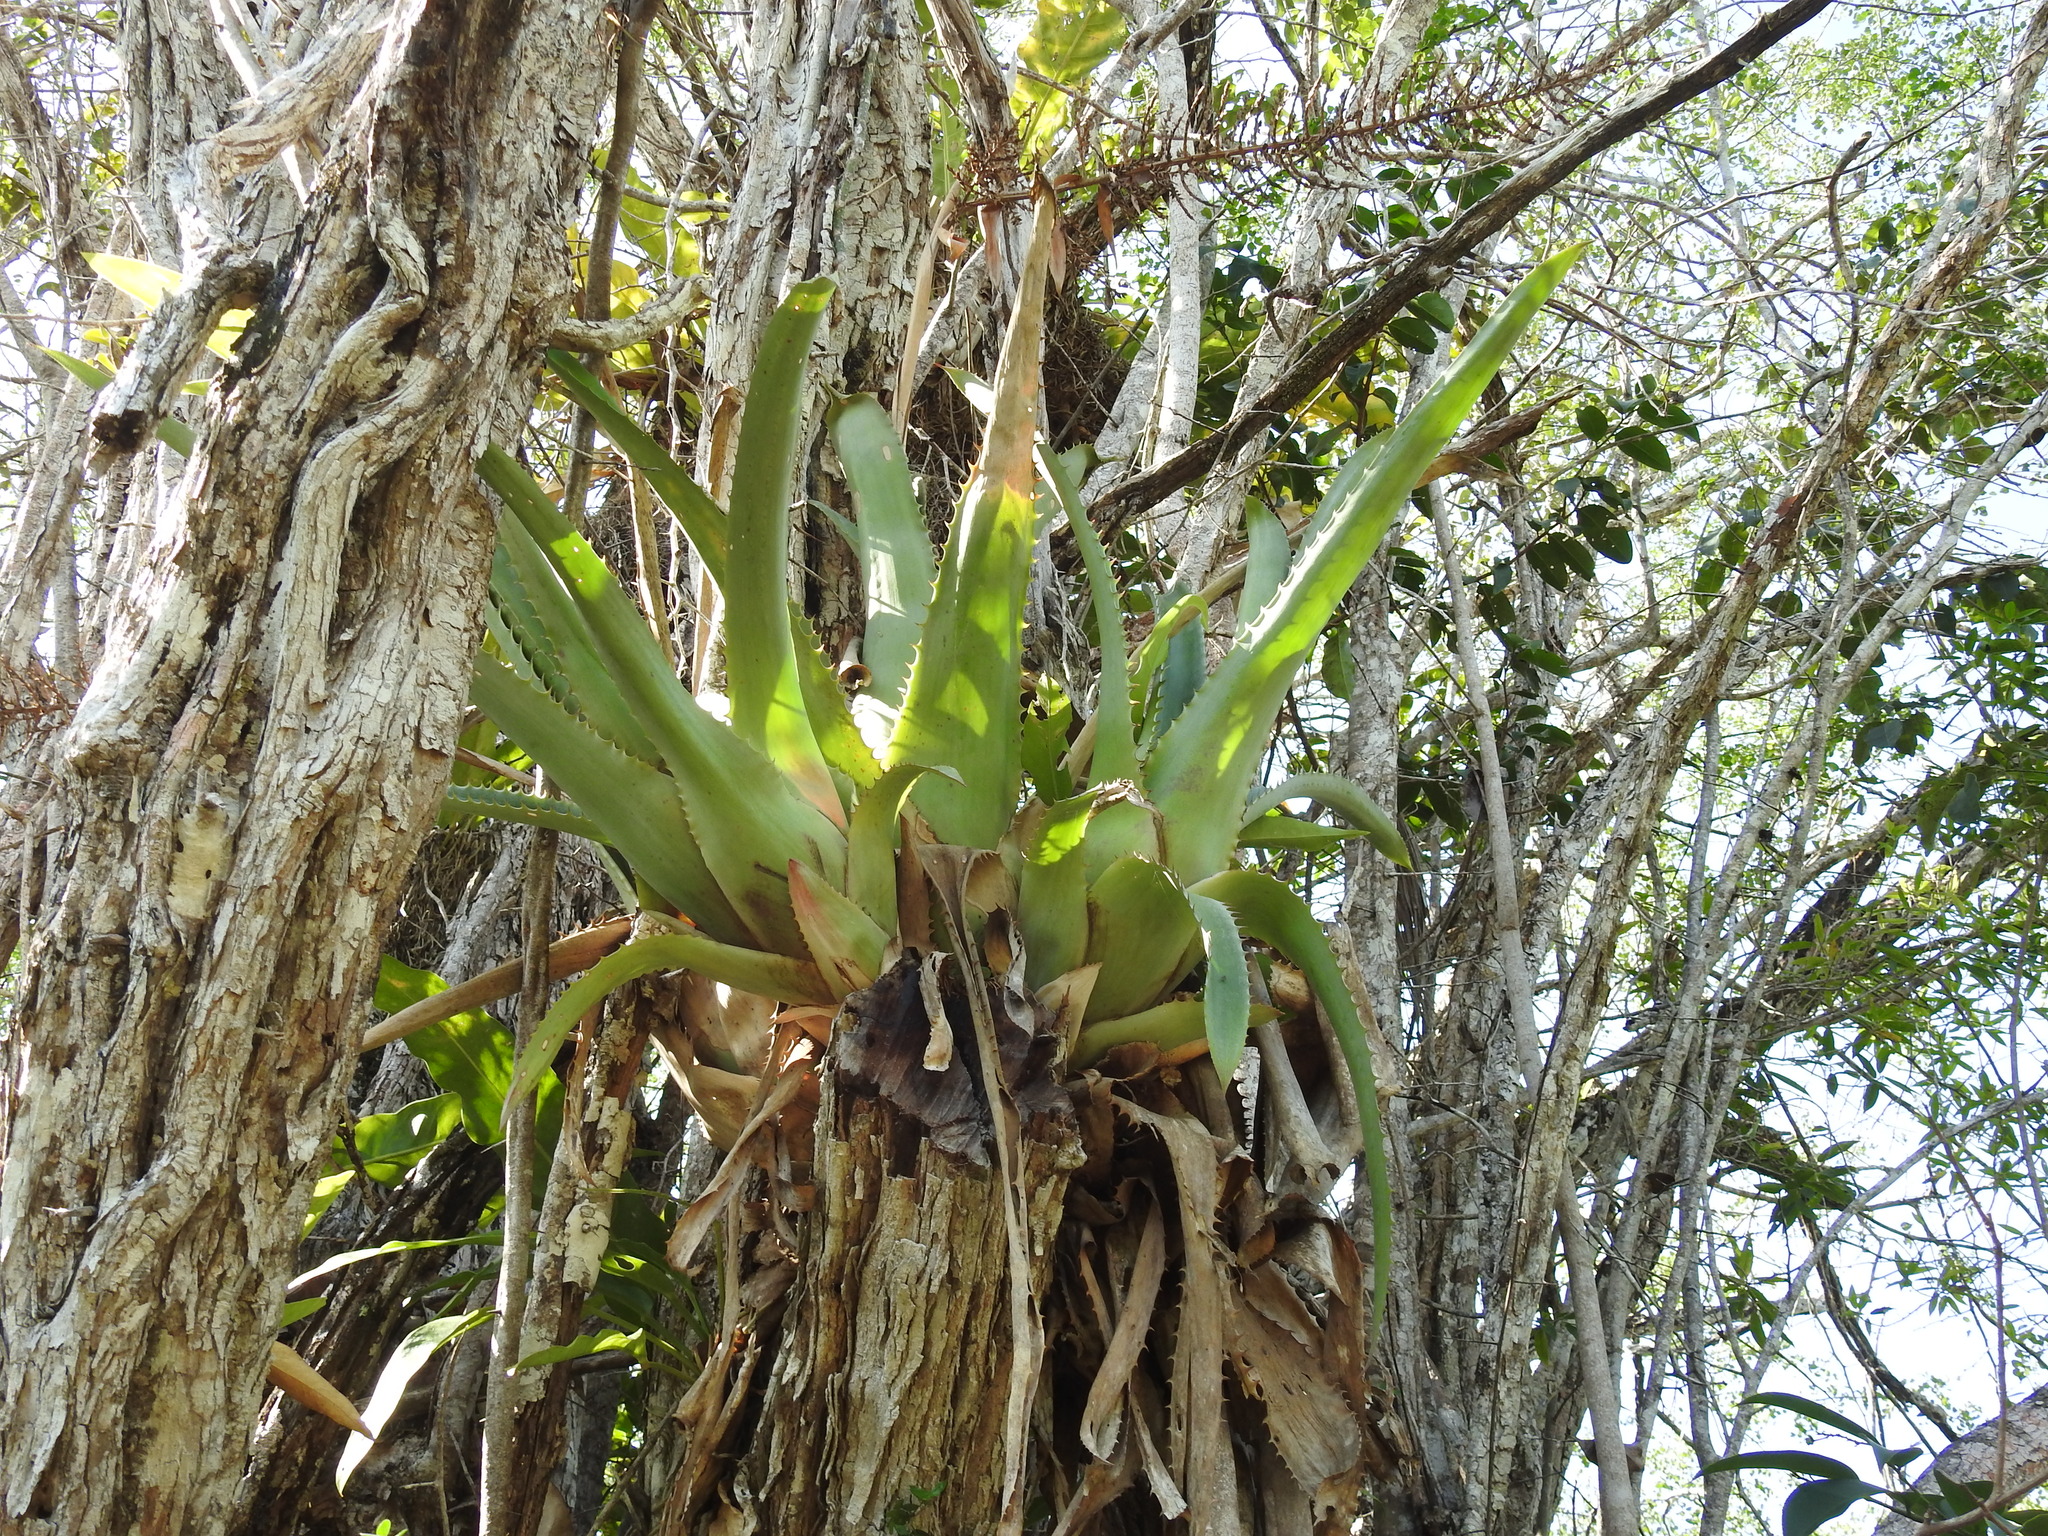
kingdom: Plantae
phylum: Tracheophyta
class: Liliopsida
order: Poales
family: Bromeliaceae
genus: Aechmea
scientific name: Aechmea bracteata
